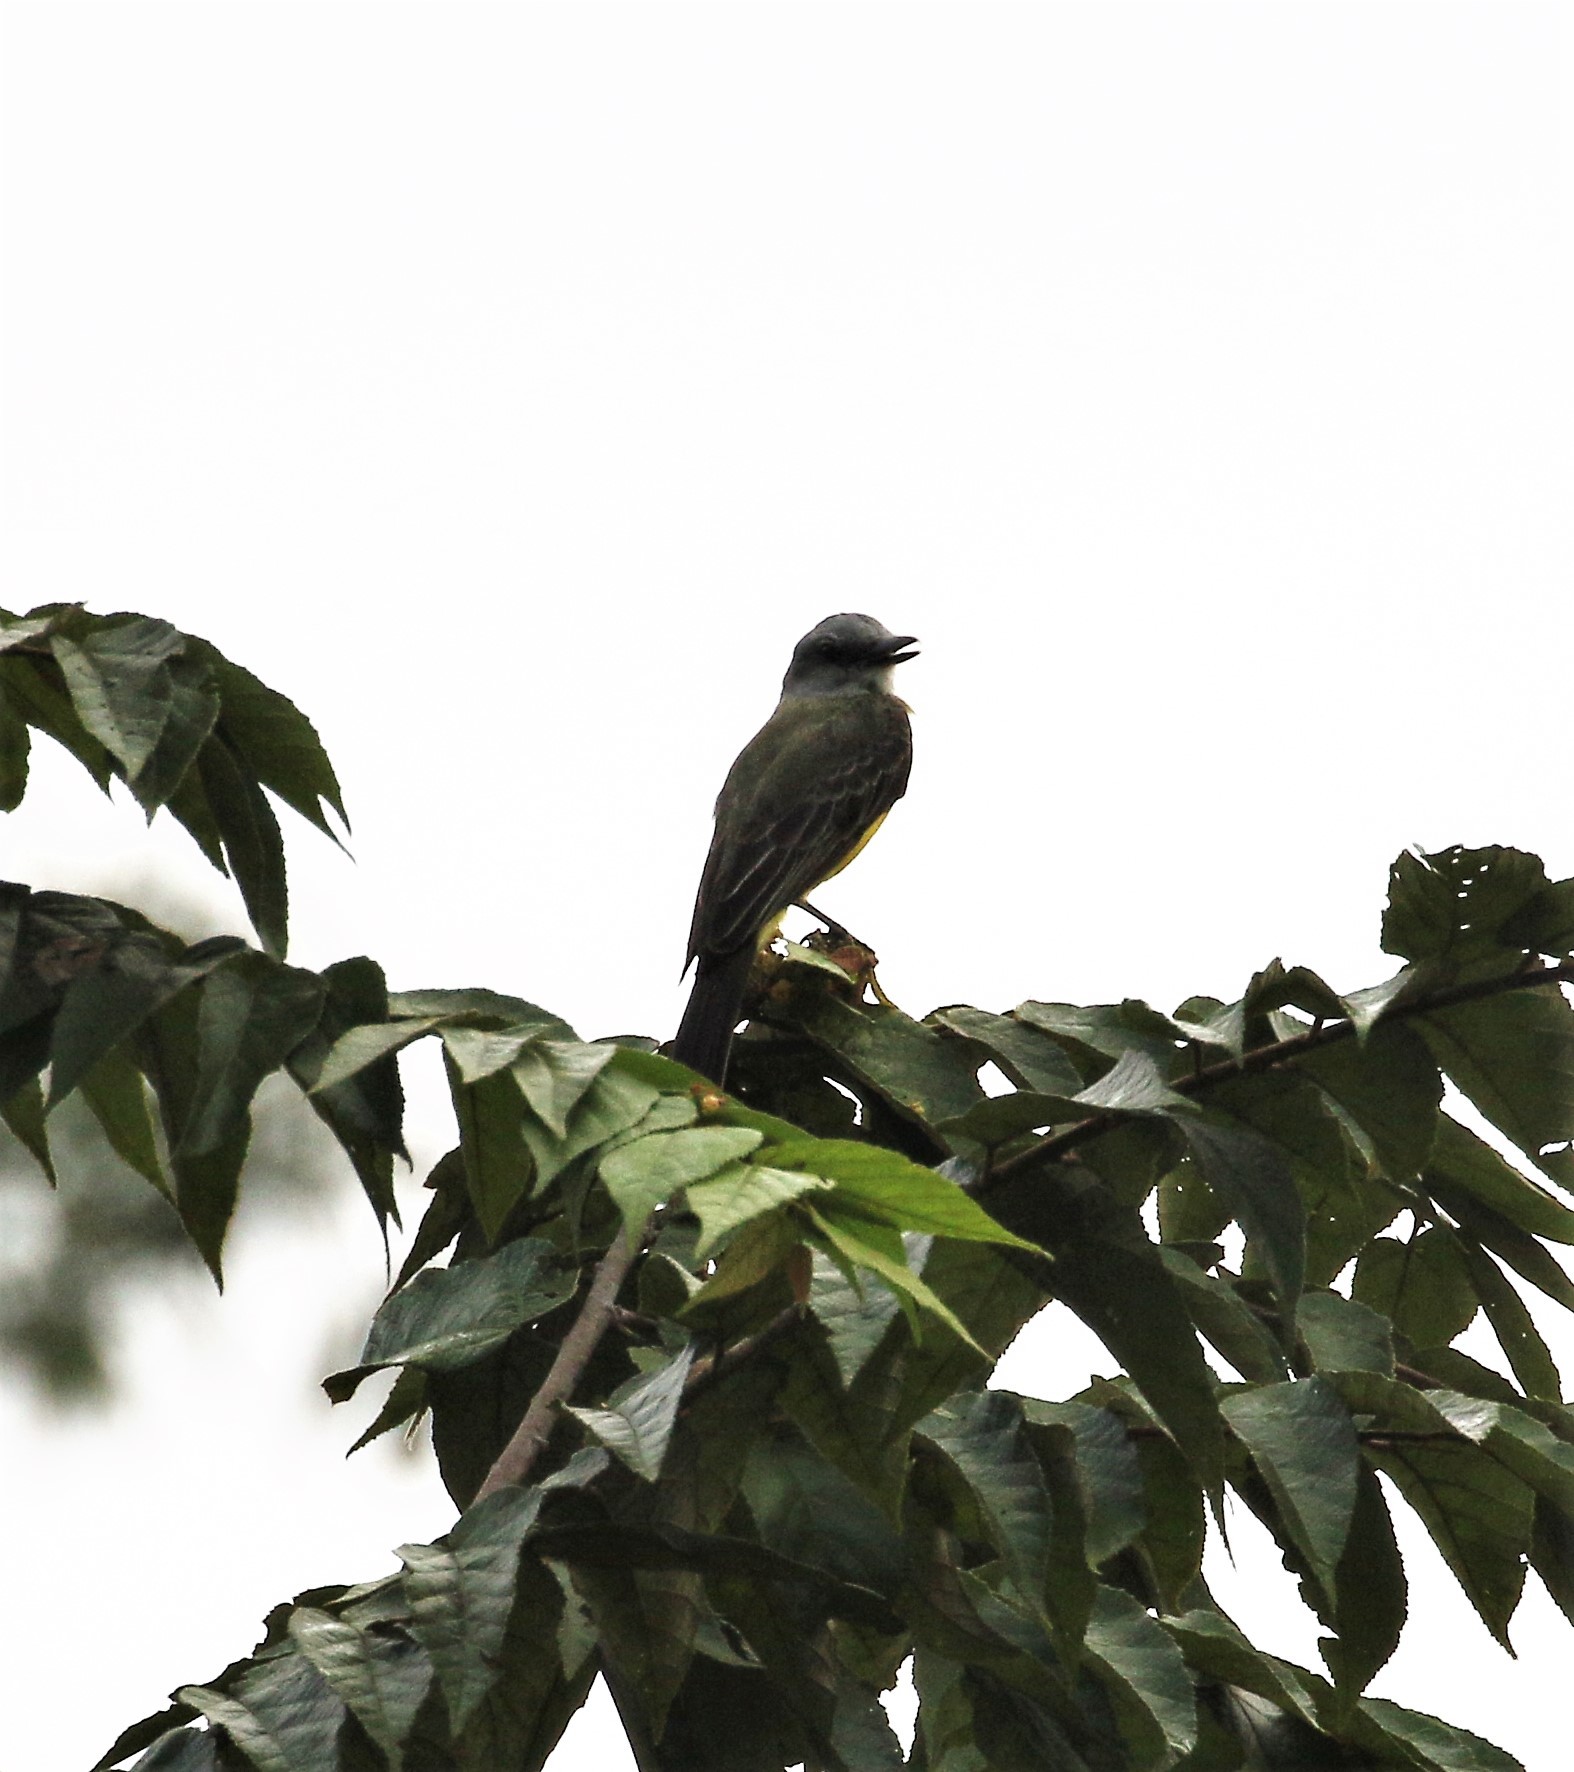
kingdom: Animalia
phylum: Chordata
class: Aves
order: Passeriformes
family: Tyrannidae
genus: Tyrannus
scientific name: Tyrannus melancholicus
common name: Tropical kingbird
